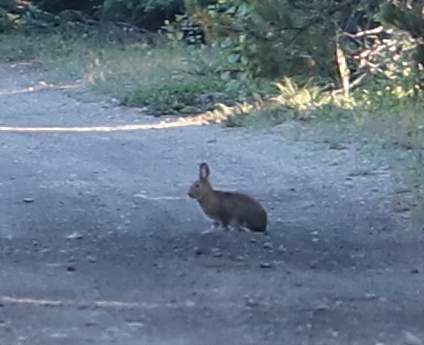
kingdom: Animalia
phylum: Chordata
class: Mammalia
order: Lagomorpha
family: Leporidae
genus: Lepus
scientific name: Lepus americanus
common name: Snowshoe hare
